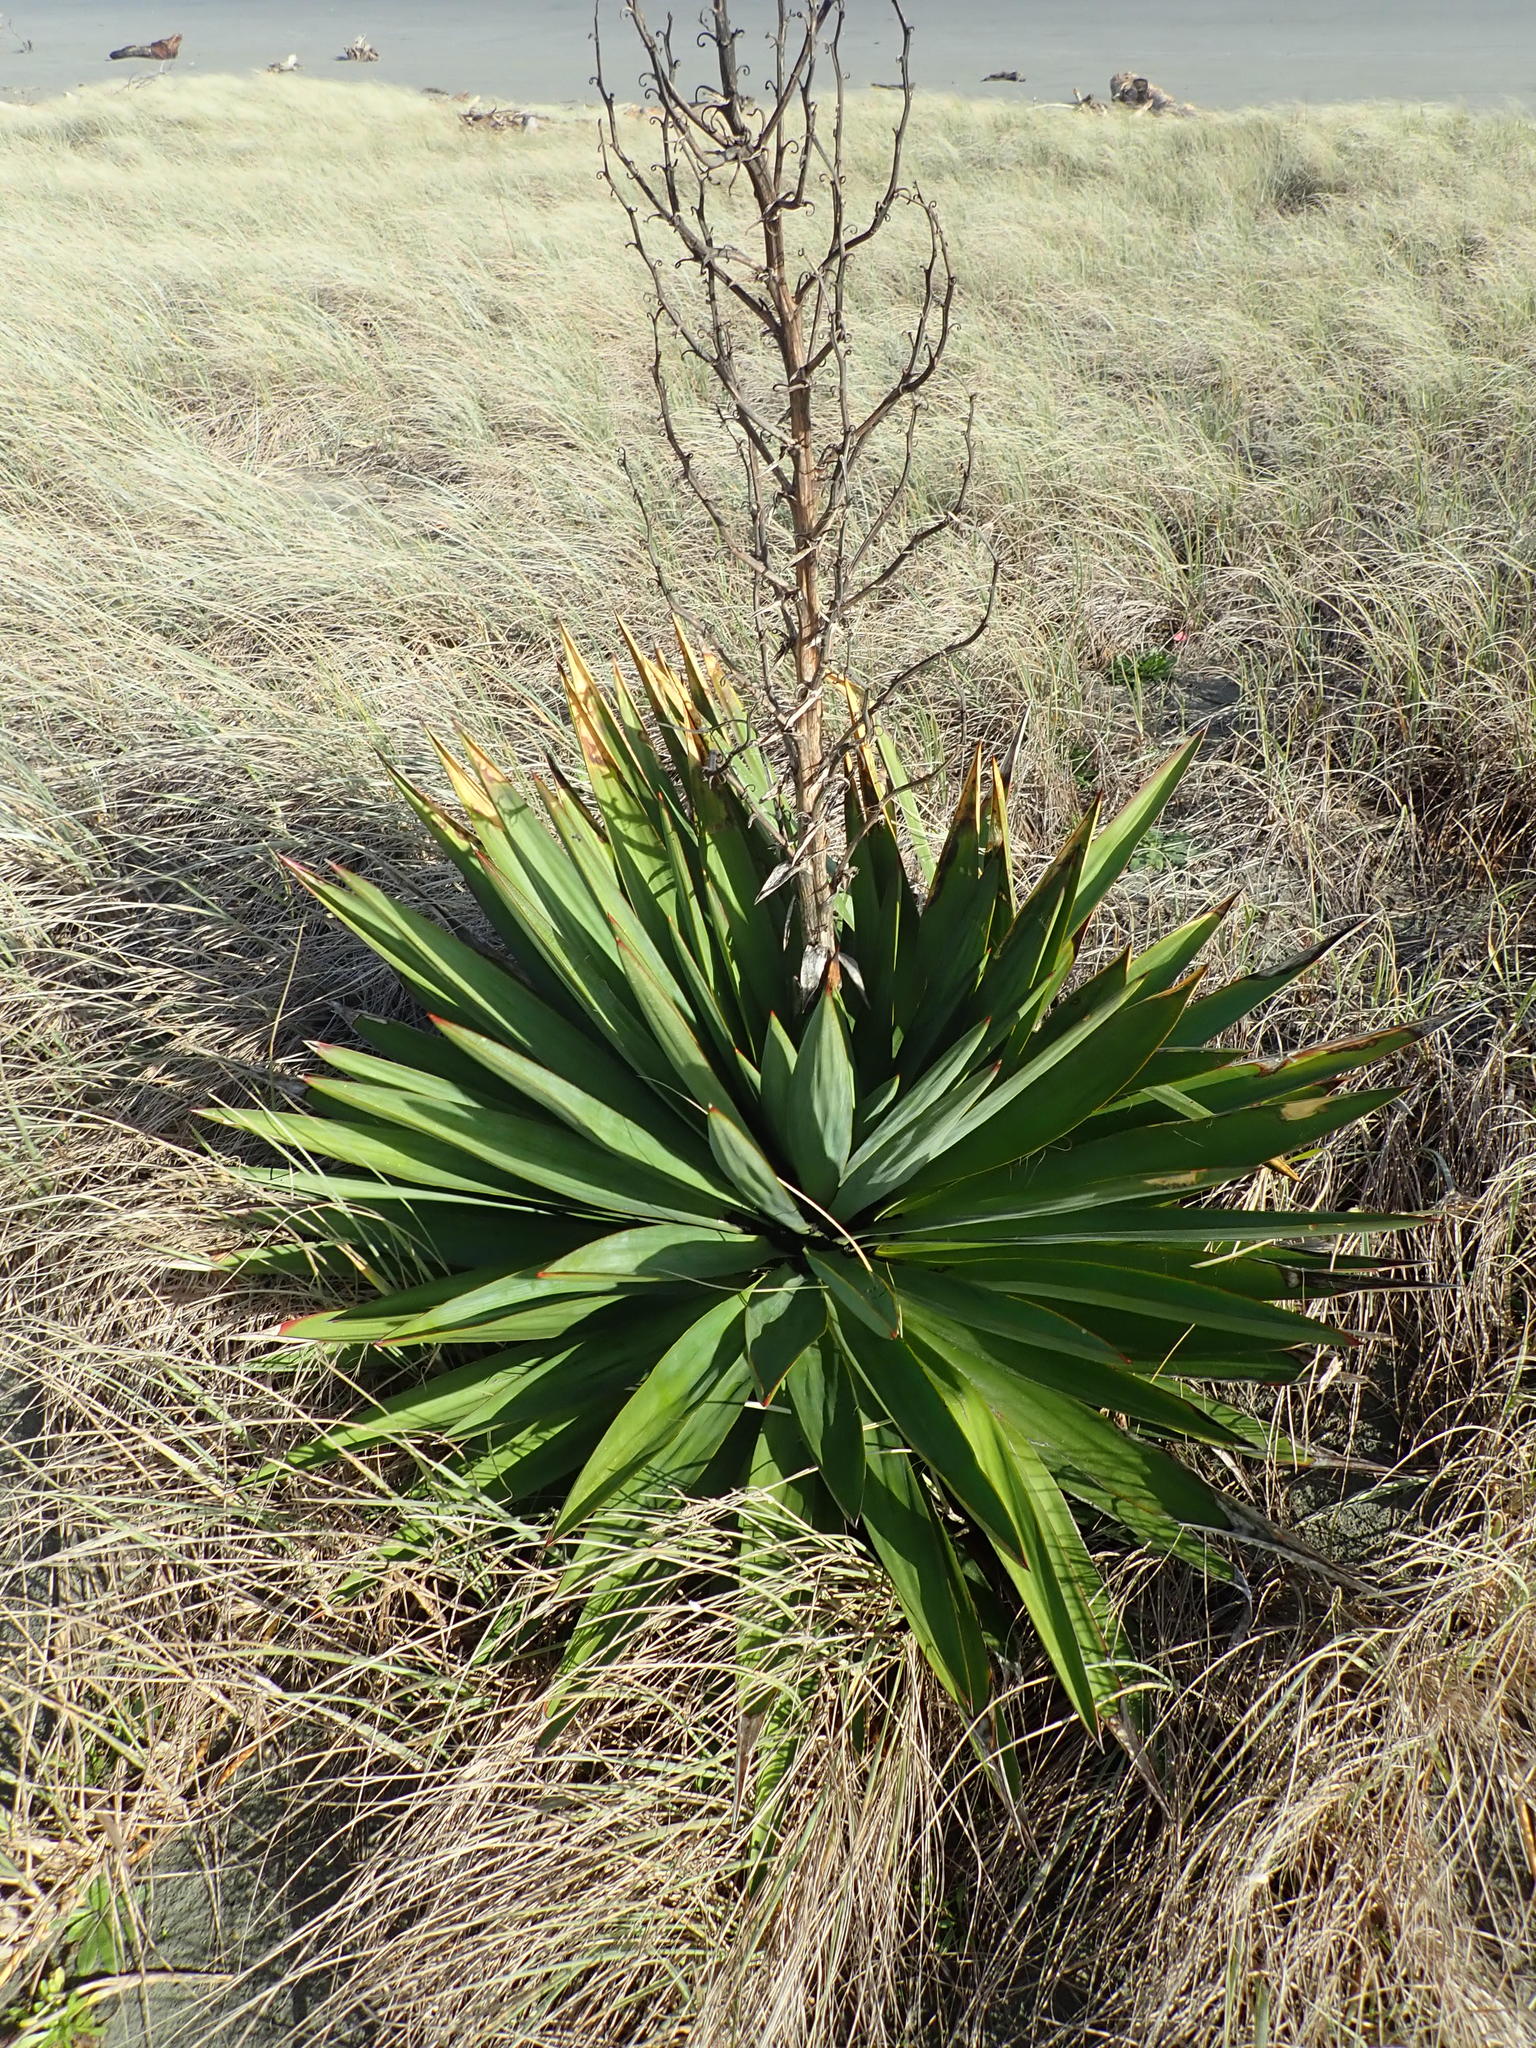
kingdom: Plantae
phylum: Tracheophyta
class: Liliopsida
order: Asparagales
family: Asparagaceae
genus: Yucca
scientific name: Yucca gloriosa
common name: Spanish-dagger
